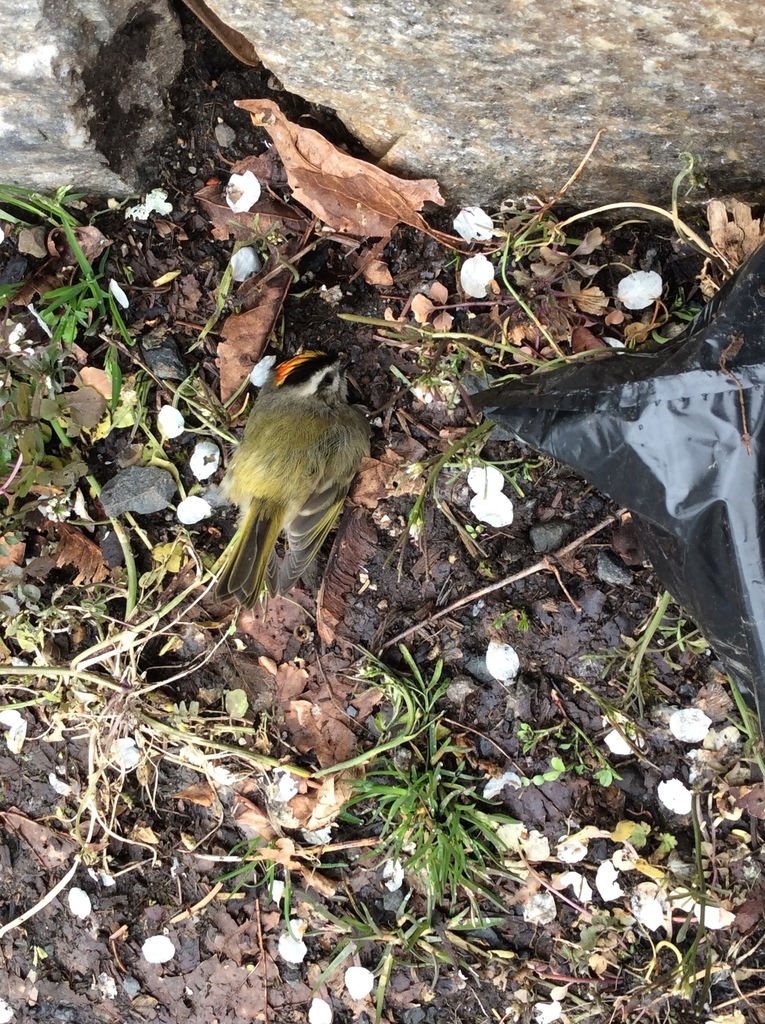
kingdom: Animalia
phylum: Chordata
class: Aves
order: Passeriformes
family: Regulidae
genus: Regulus
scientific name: Regulus satrapa
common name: Golden-crowned kinglet
